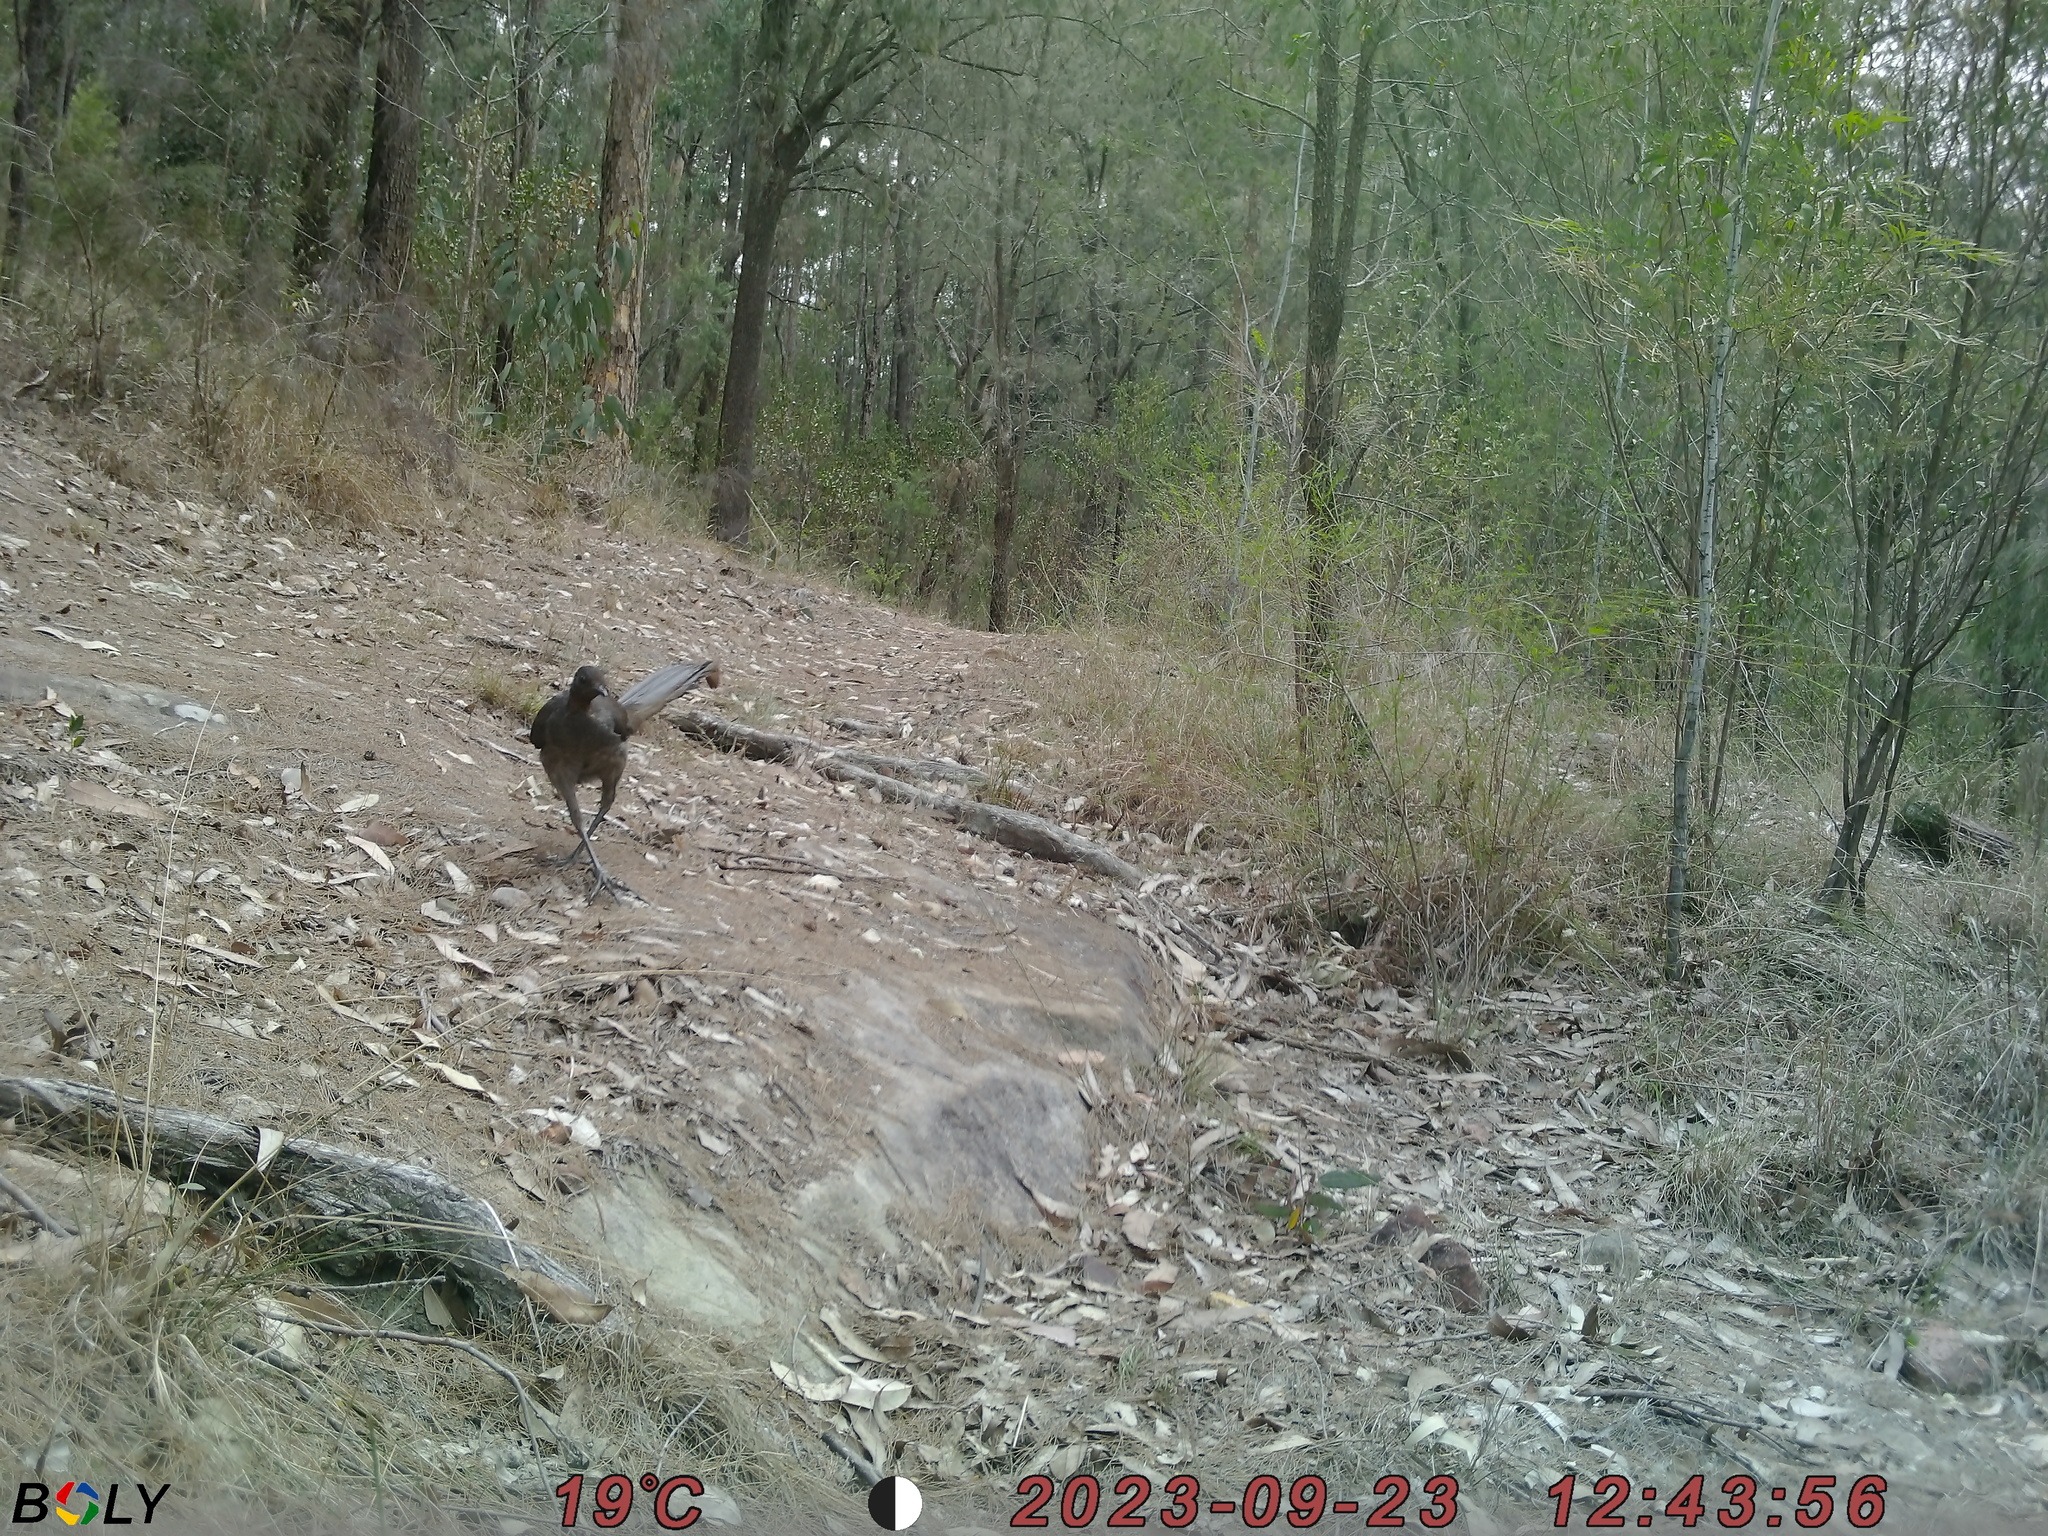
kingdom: Animalia
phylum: Chordata
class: Aves
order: Passeriformes
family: Menuridae
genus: Menura
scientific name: Menura novaehollandiae
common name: Superb lyrebird
